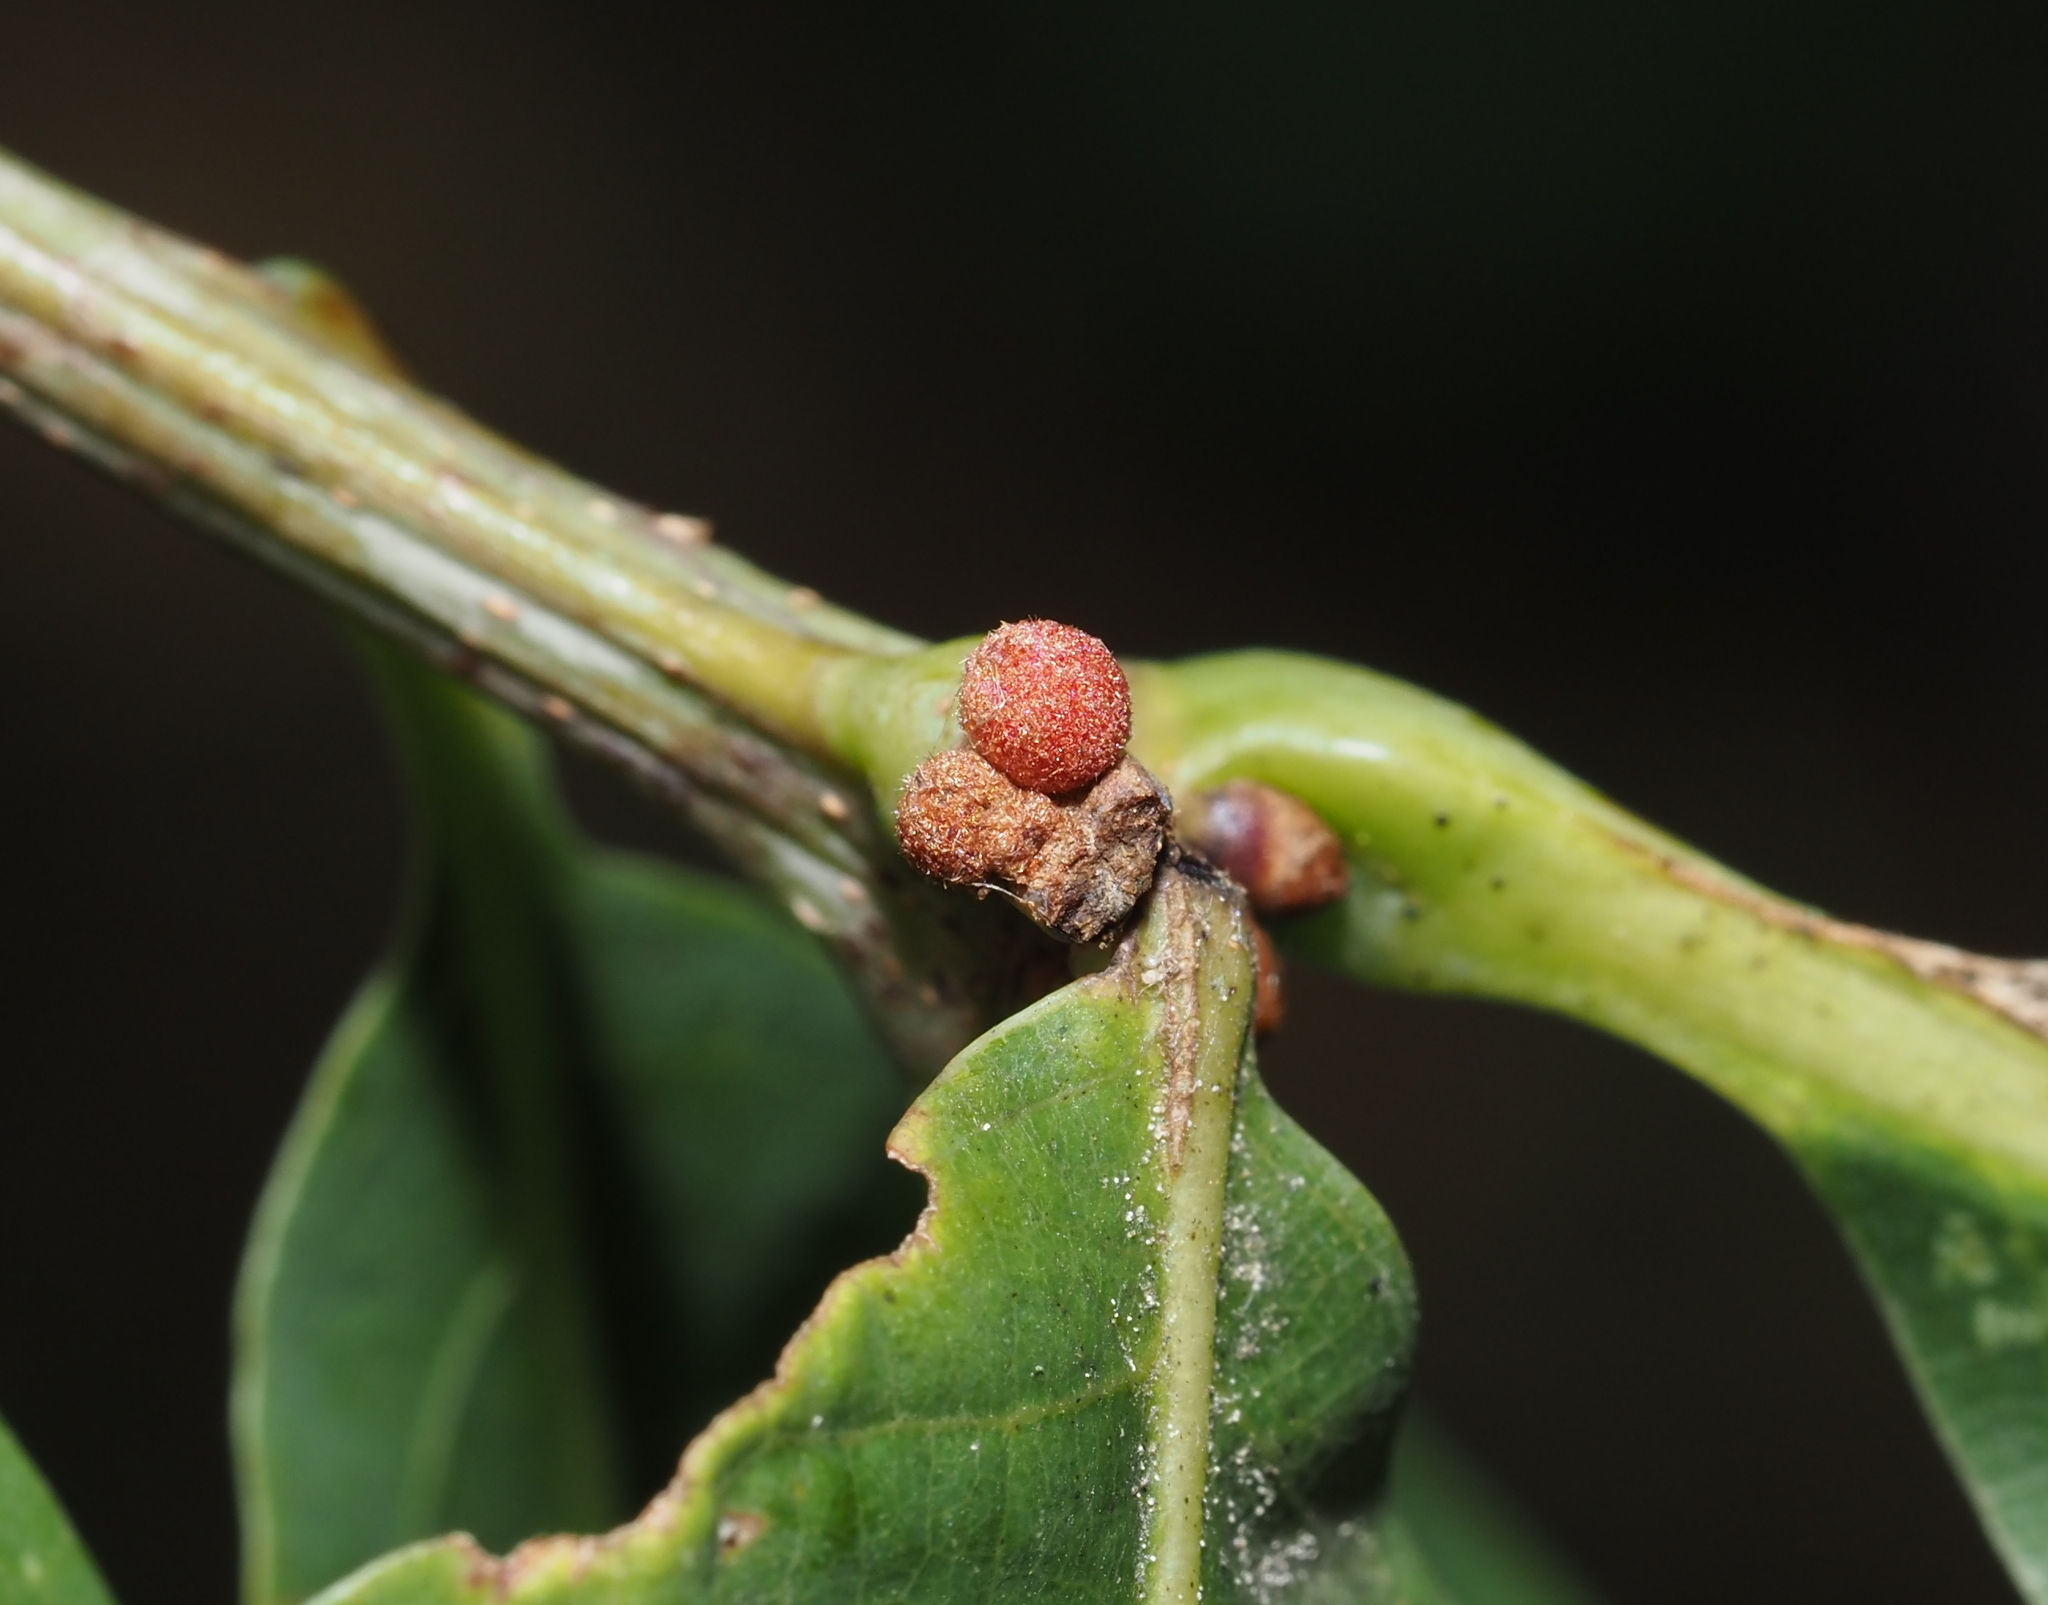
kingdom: Animalia
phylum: Arthropoda
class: Insecta
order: Hymenoptera
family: Cynipidae
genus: Andricus
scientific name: Andricus
